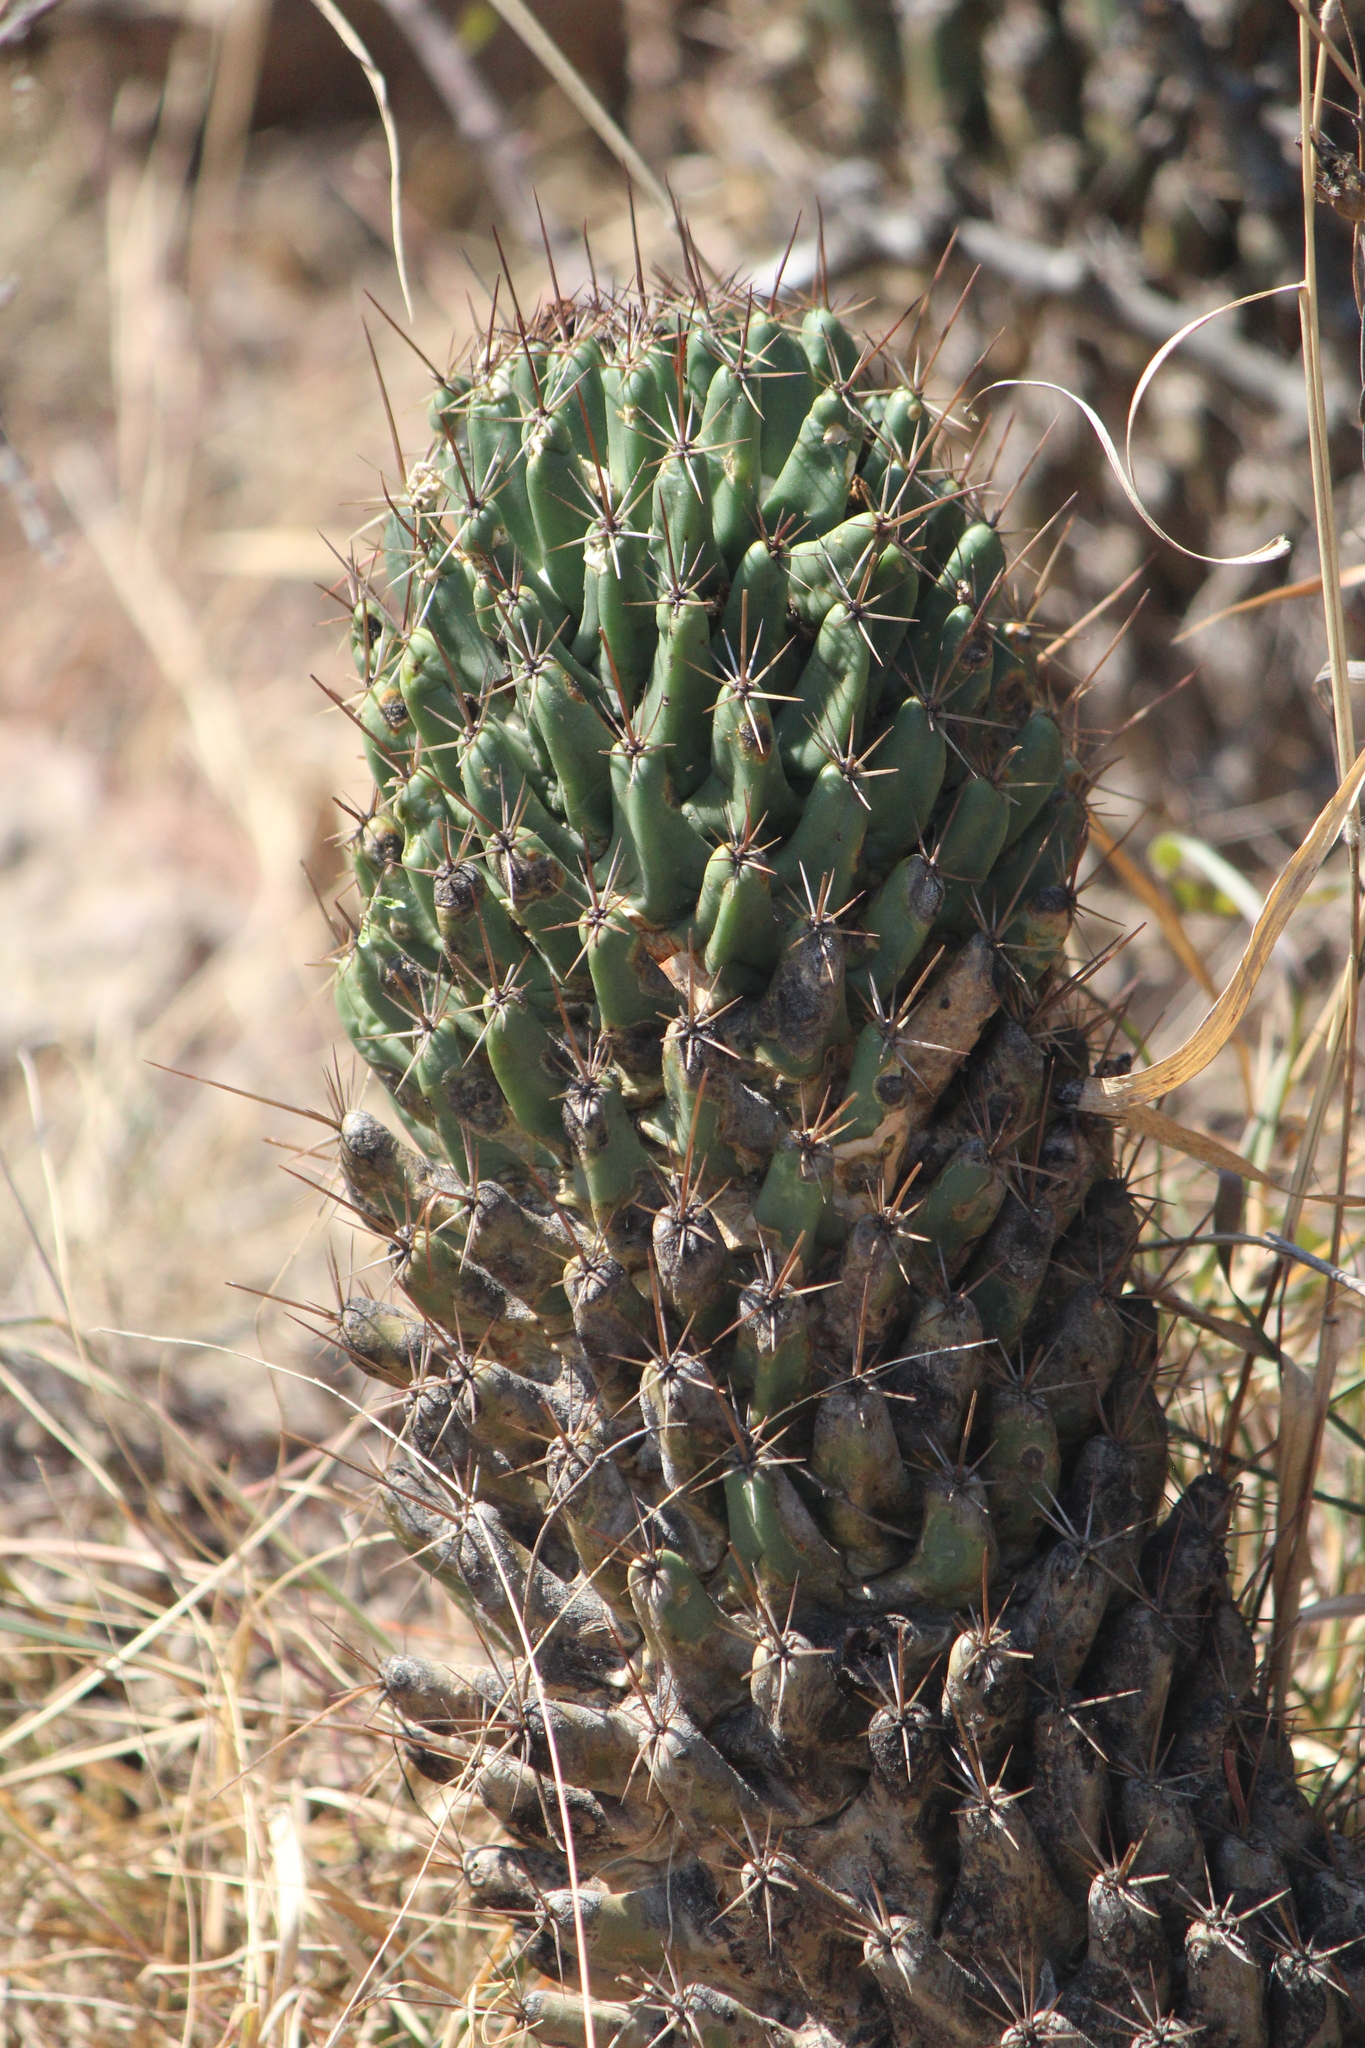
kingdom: Plantae
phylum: Tracheophyta
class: Magnoliopsida
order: Caryophyllales
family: Cactaceae
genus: Coryphantha
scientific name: Coryphantha octacantha
